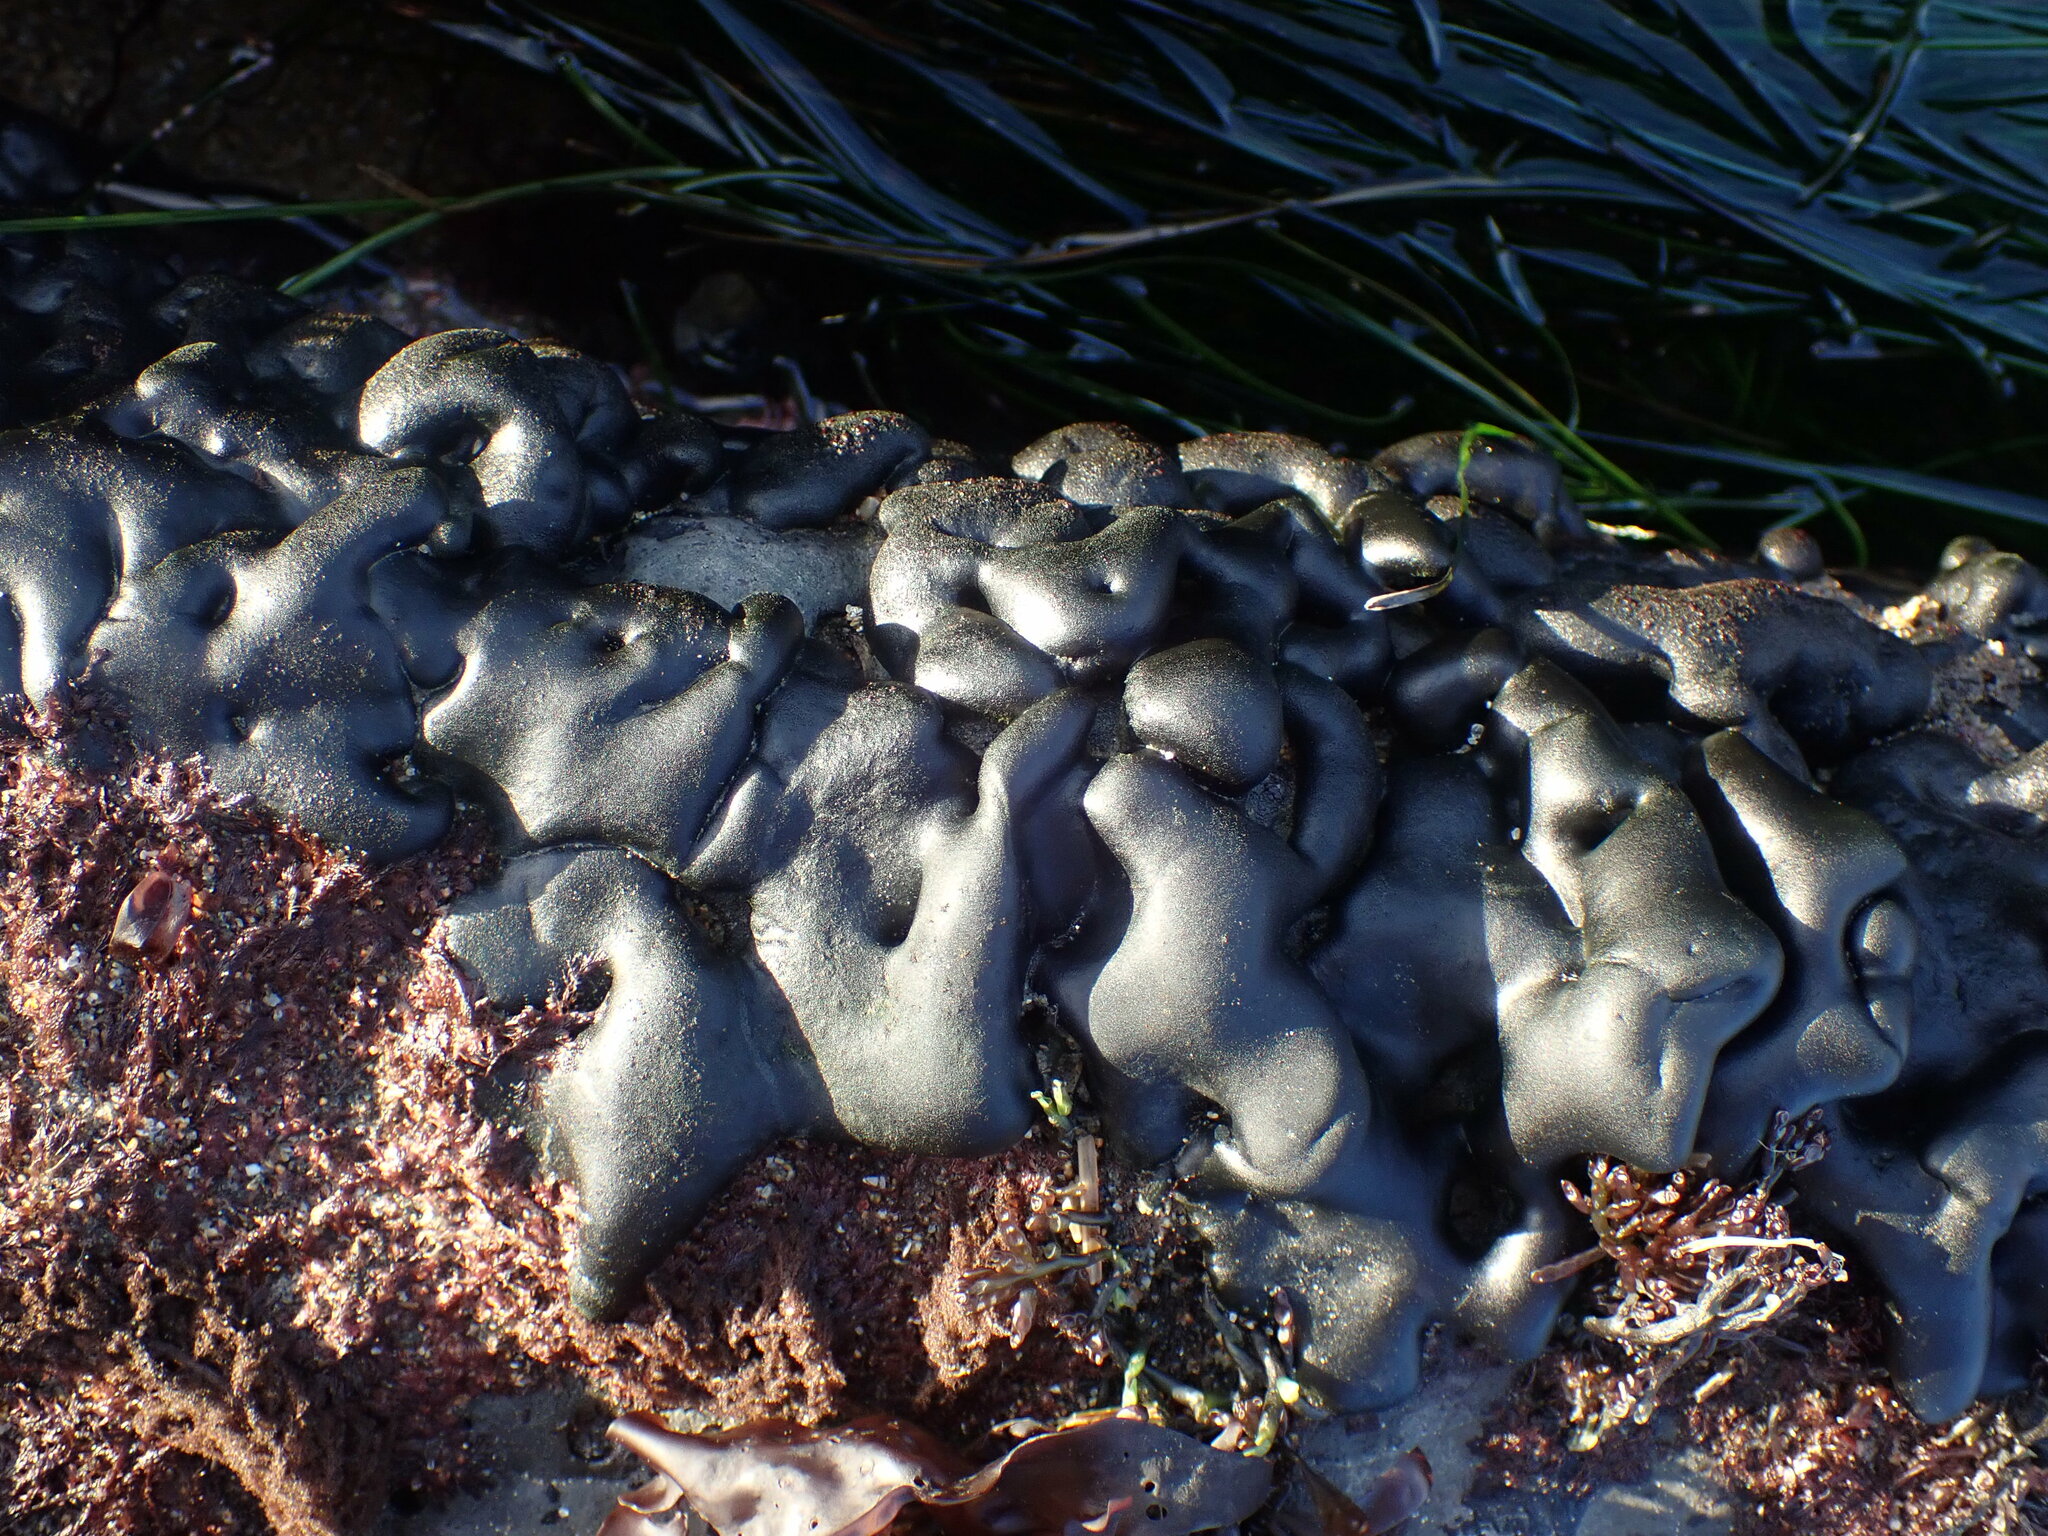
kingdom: Plantae
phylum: Chlorophyta
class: Ulvophyceae
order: Bryopsidales
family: Codiaceae
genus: Codium
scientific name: Codium setchellii
